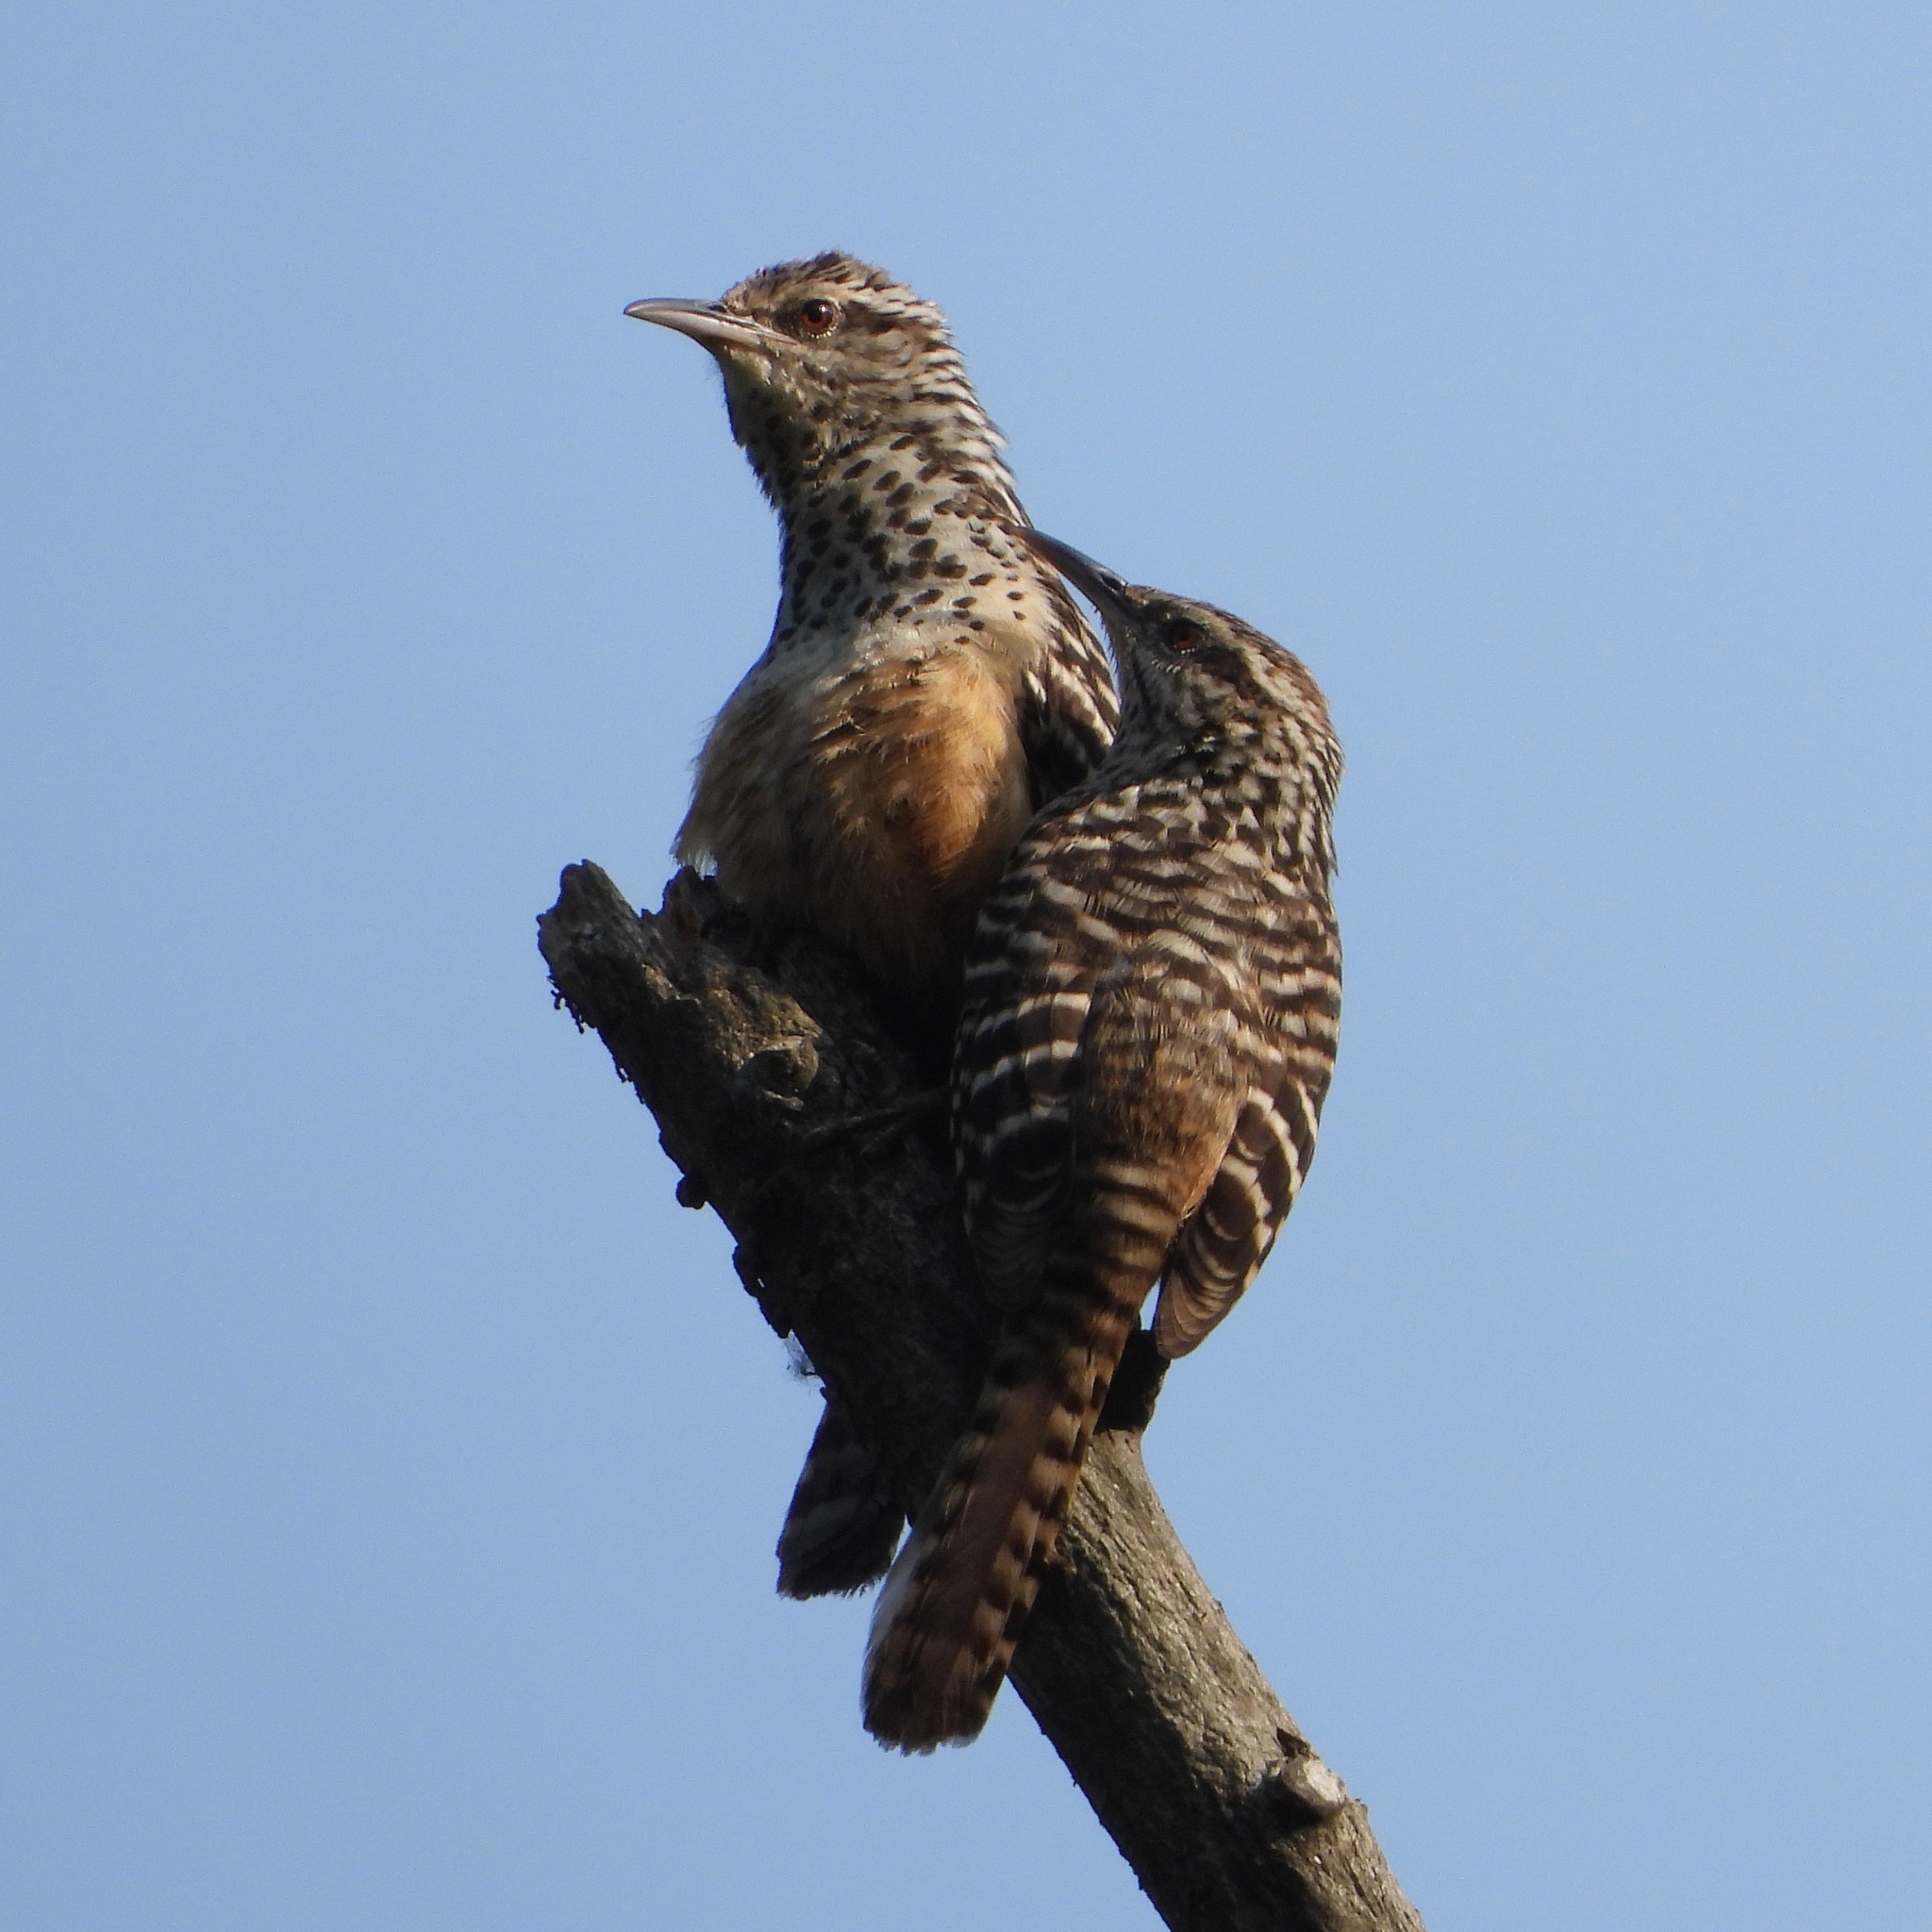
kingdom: Animalia
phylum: Chordata
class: Aves
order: Passeriformes
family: Troglodytidae
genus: Campylorhynchus
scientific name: Campylorhynchus zonatus
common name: Band-backed wren
